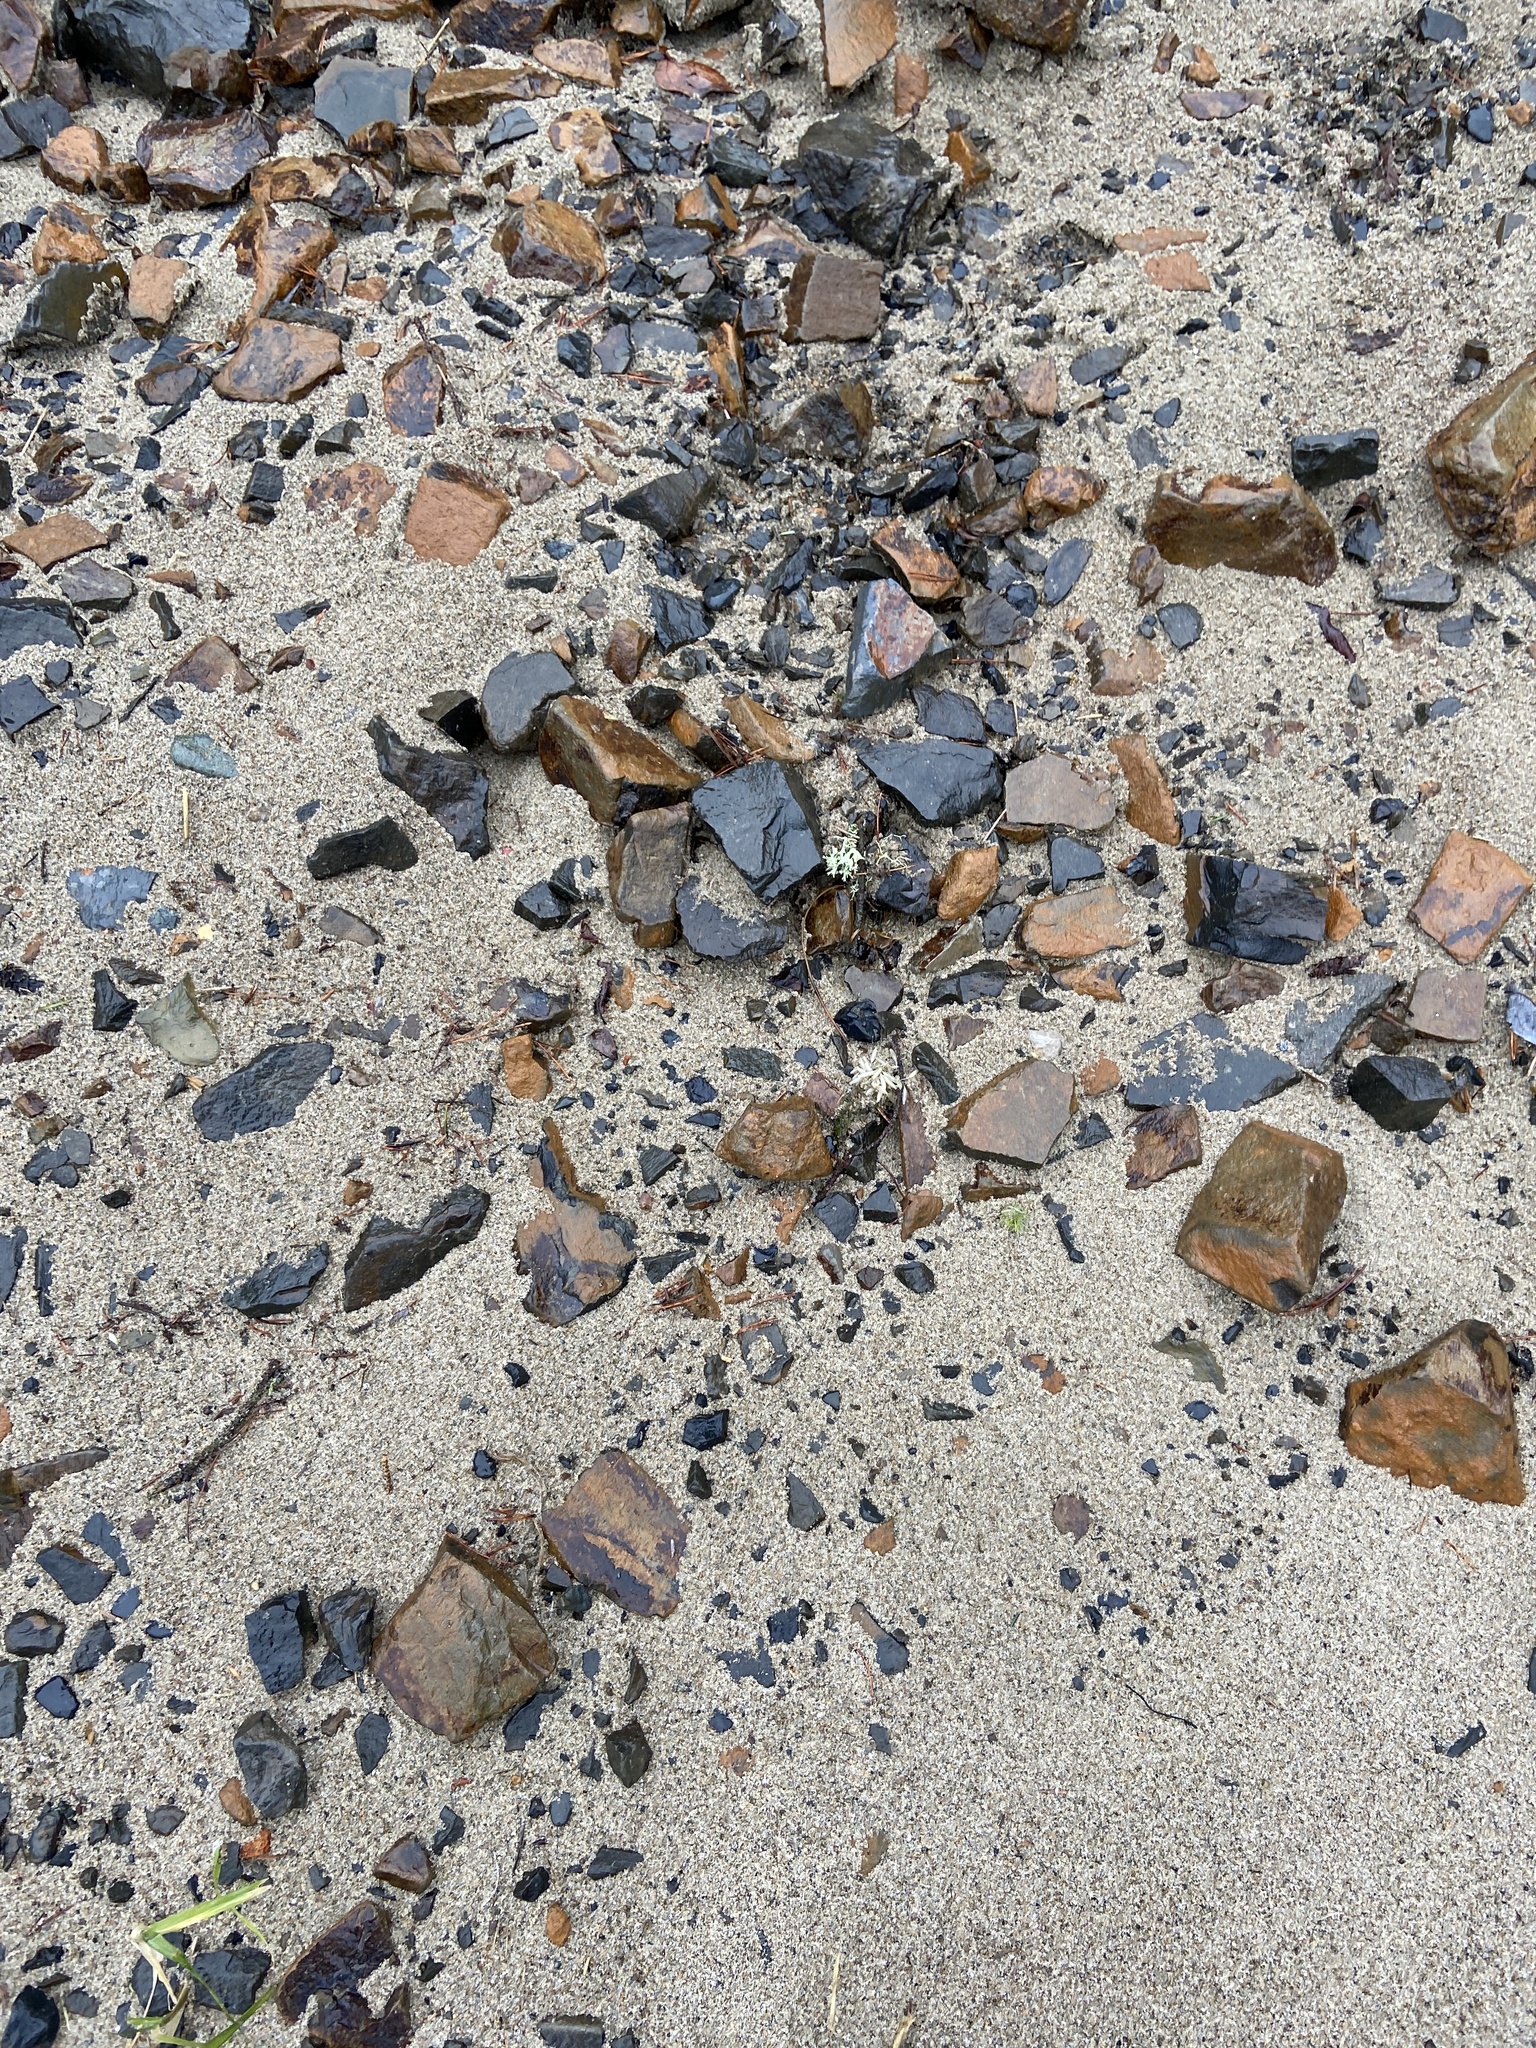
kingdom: Animalia
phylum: Mollusca
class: Cephalopoda
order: Myopsida
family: Loliginidae
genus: Doryteuthis
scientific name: Doryteuthis opalescens
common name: Opalescent inshore squid
